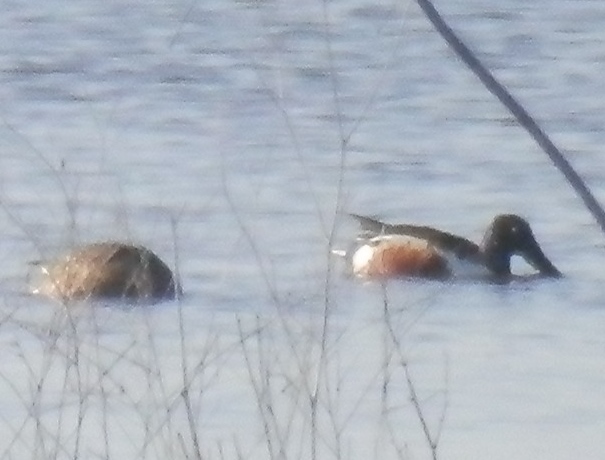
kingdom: Animalia
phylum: Chordata
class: Aves
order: Anseriformes
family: Anatidae
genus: Spatula
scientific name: Spatula clypeata
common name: Northern shoveler
